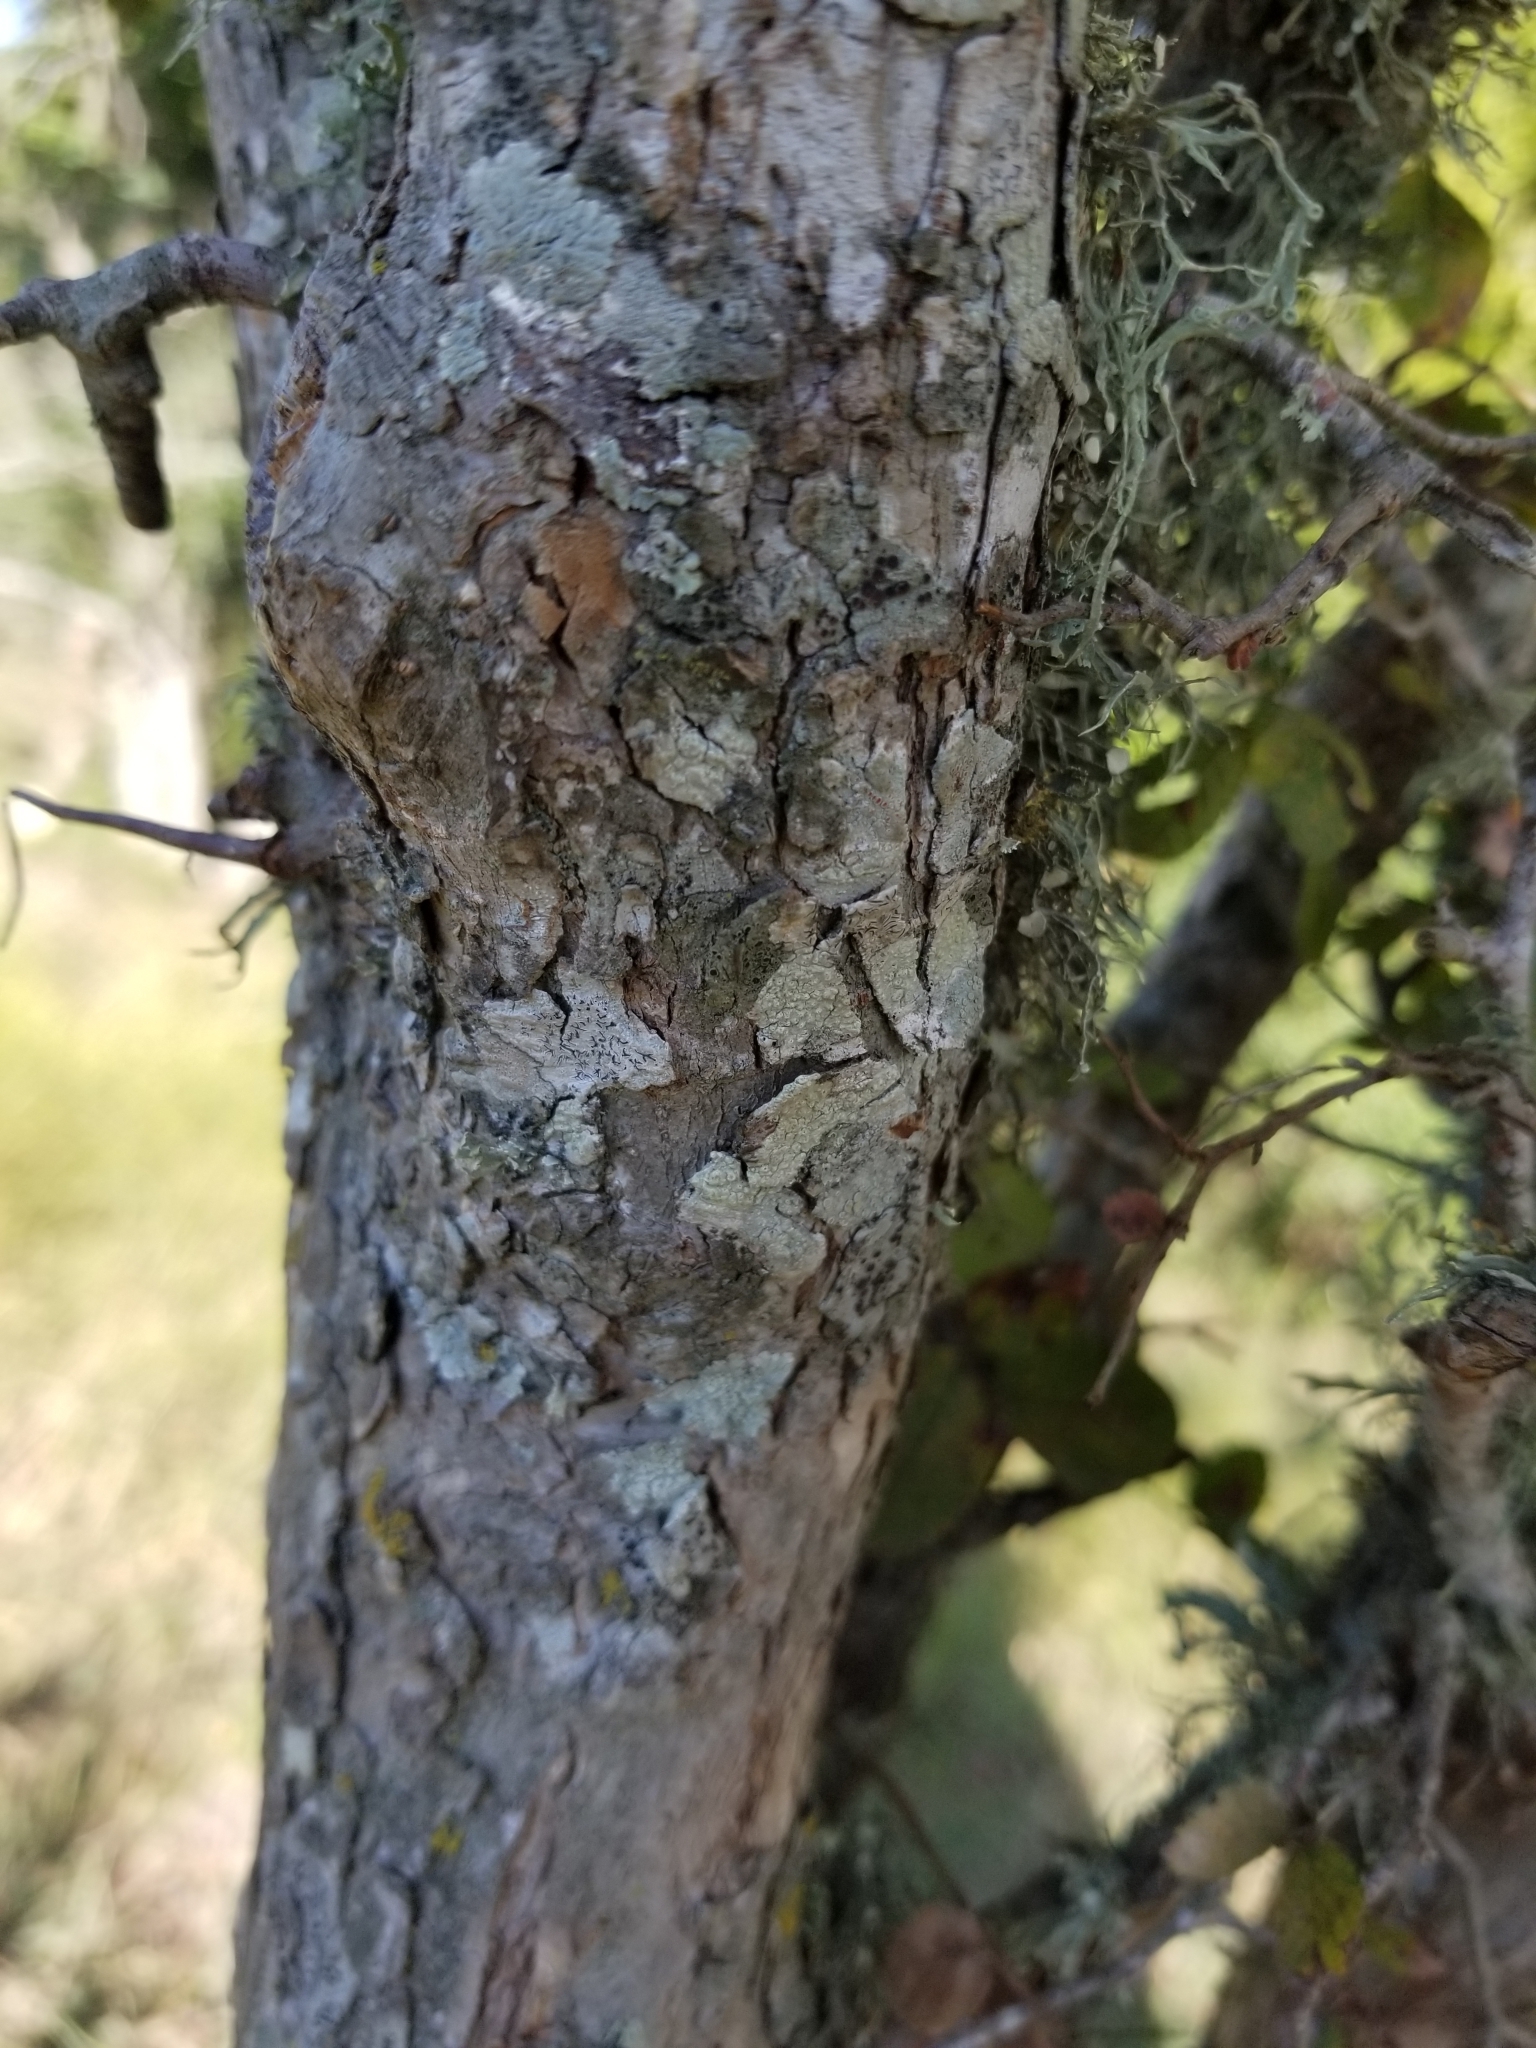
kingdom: Plantae
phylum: Tracheophyta
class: Magnoliopsida
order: Rosales
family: Ulmaceae
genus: Ulmus
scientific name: Ulmus crassifolia
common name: Basket elm
